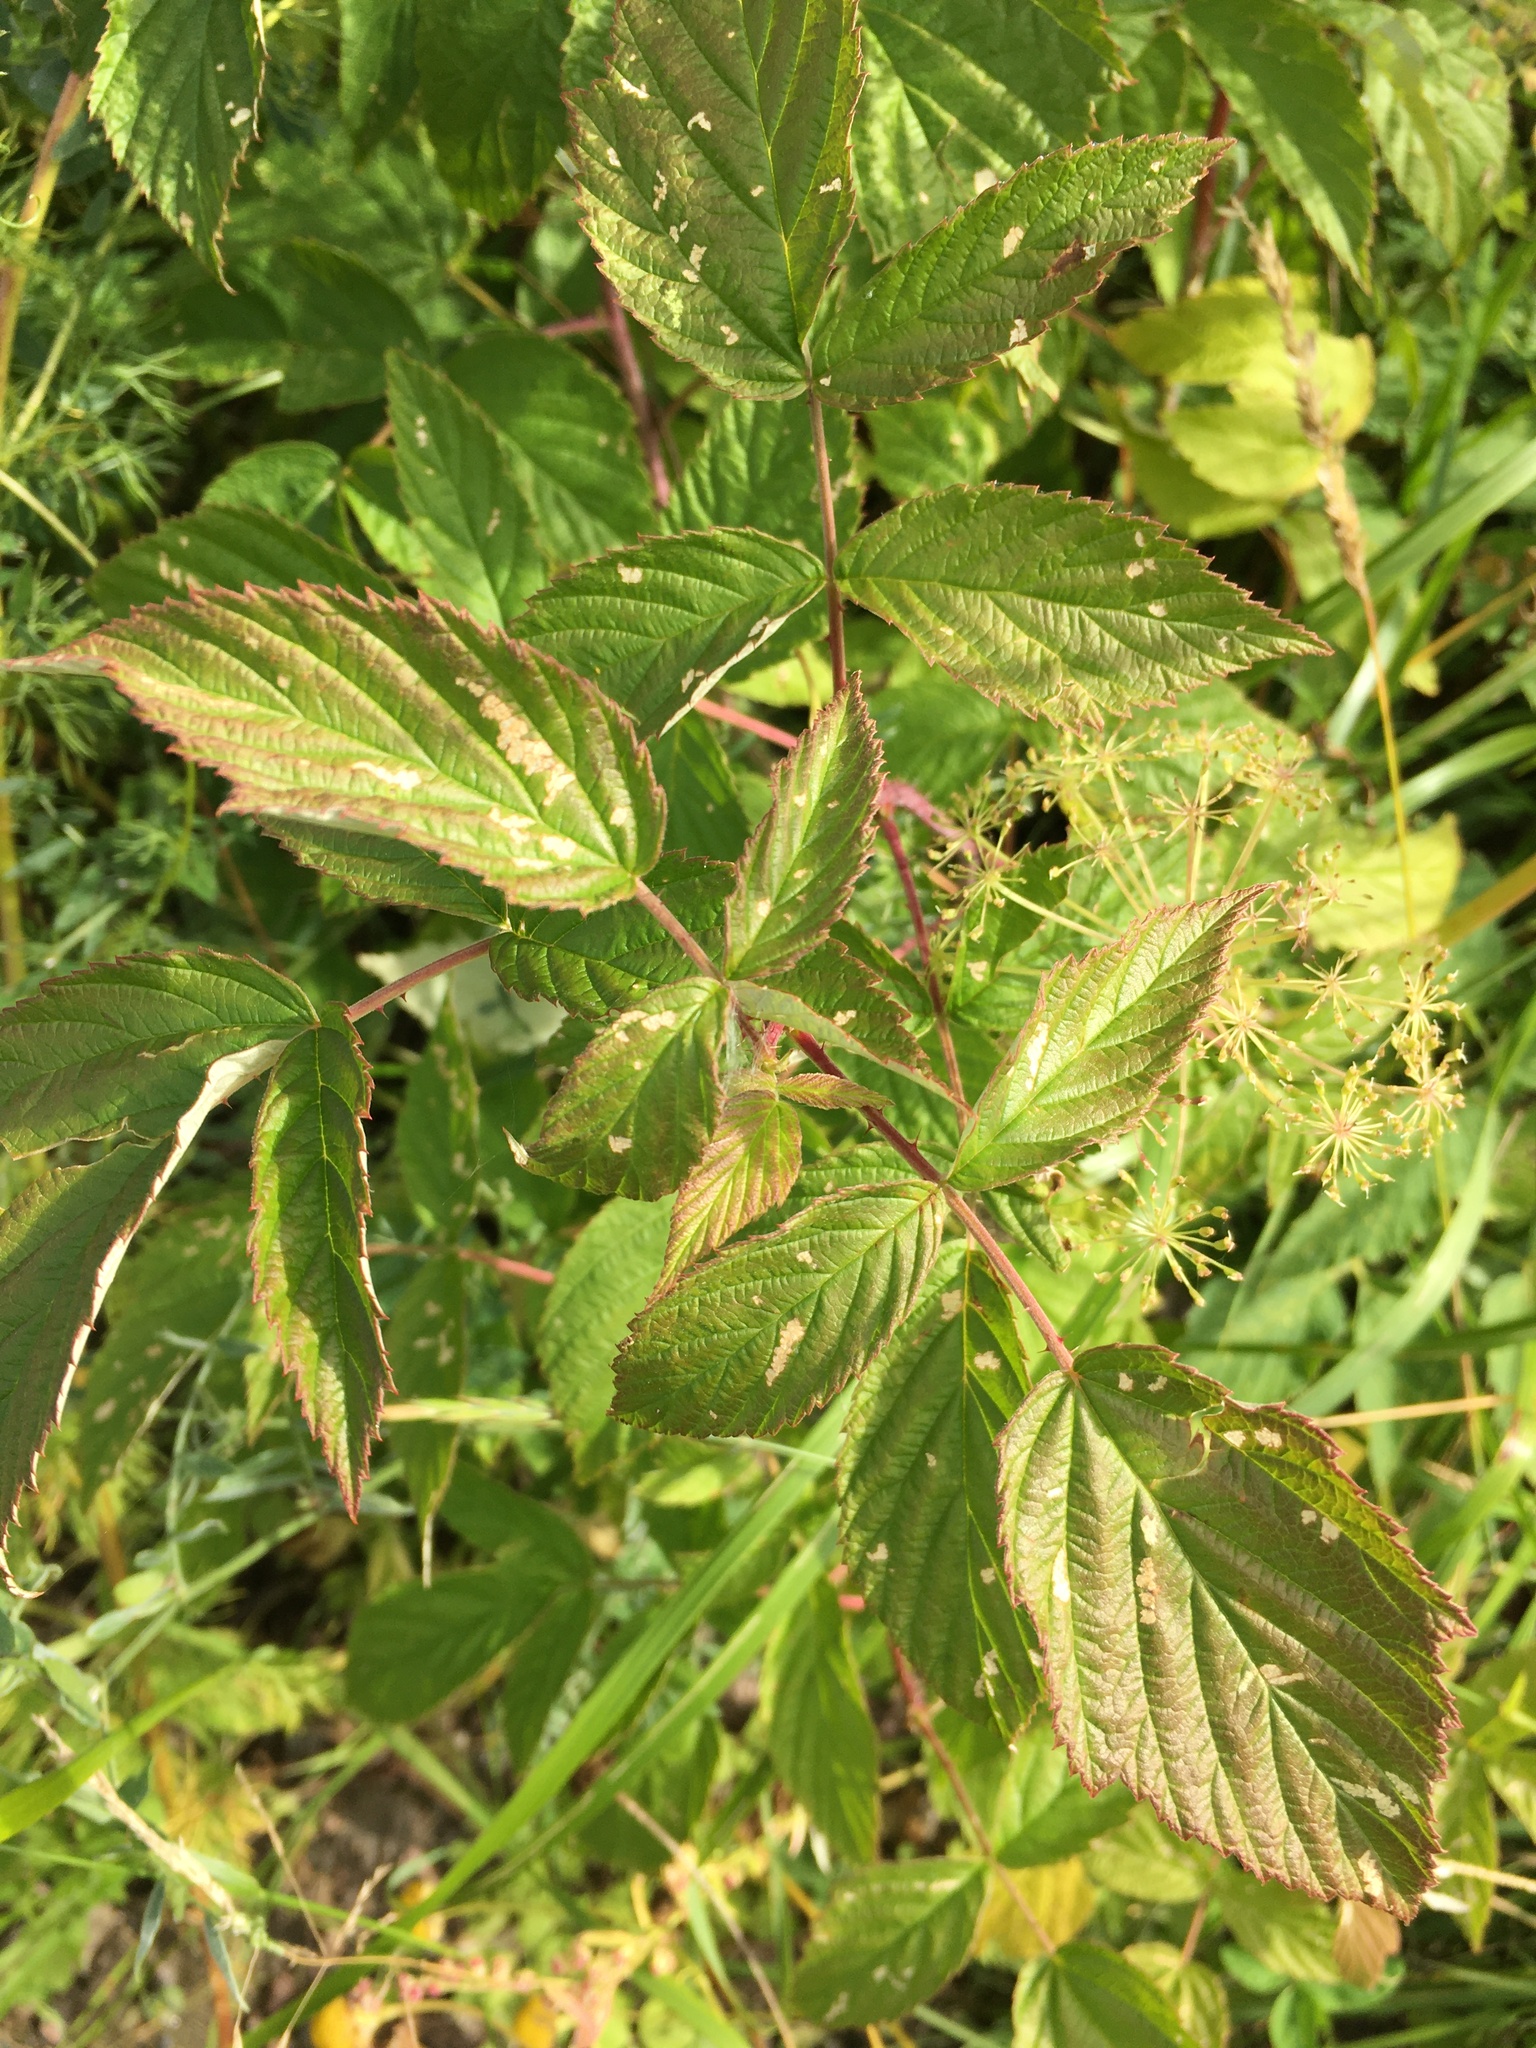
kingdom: Plantae
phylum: Tracheophyta
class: Magnoliopsida
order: Rosales
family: Rosaceae
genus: Rubus
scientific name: Rubus idaeus
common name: Raspberry
